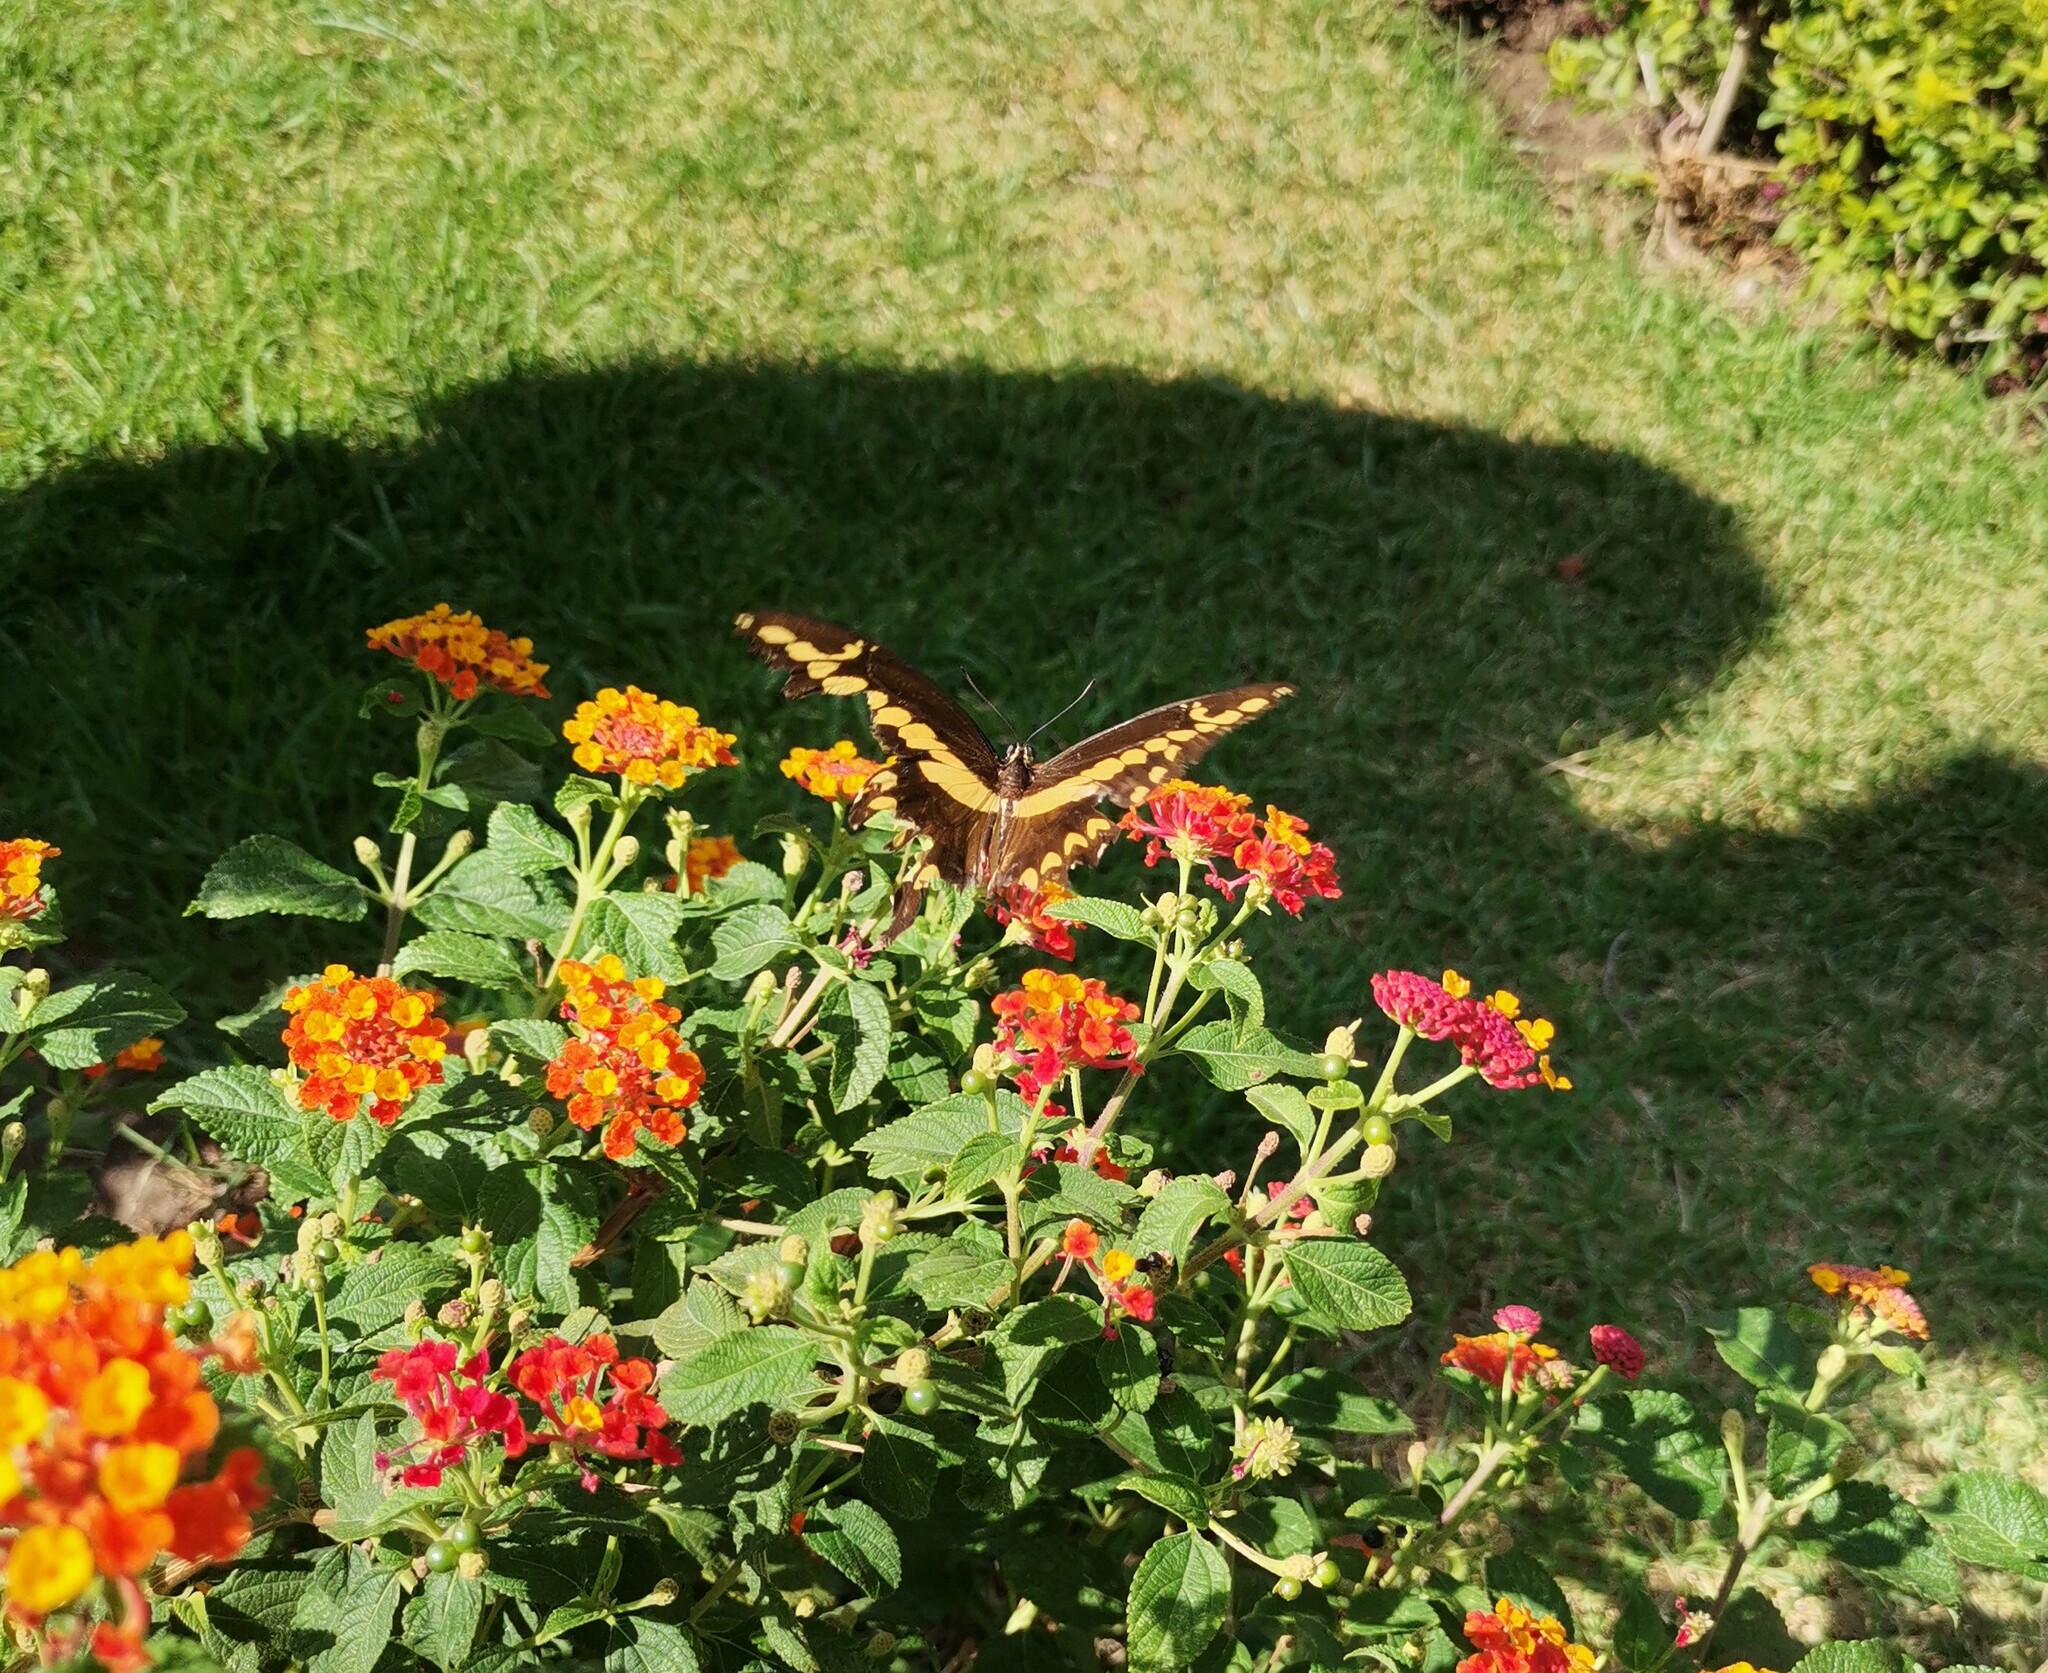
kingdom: Animalia
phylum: Arthropoda
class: Insecta
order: Lepidoptera
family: Papilionidae
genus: Papilio
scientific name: Papilio rumiko
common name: Western giant swallowtail
